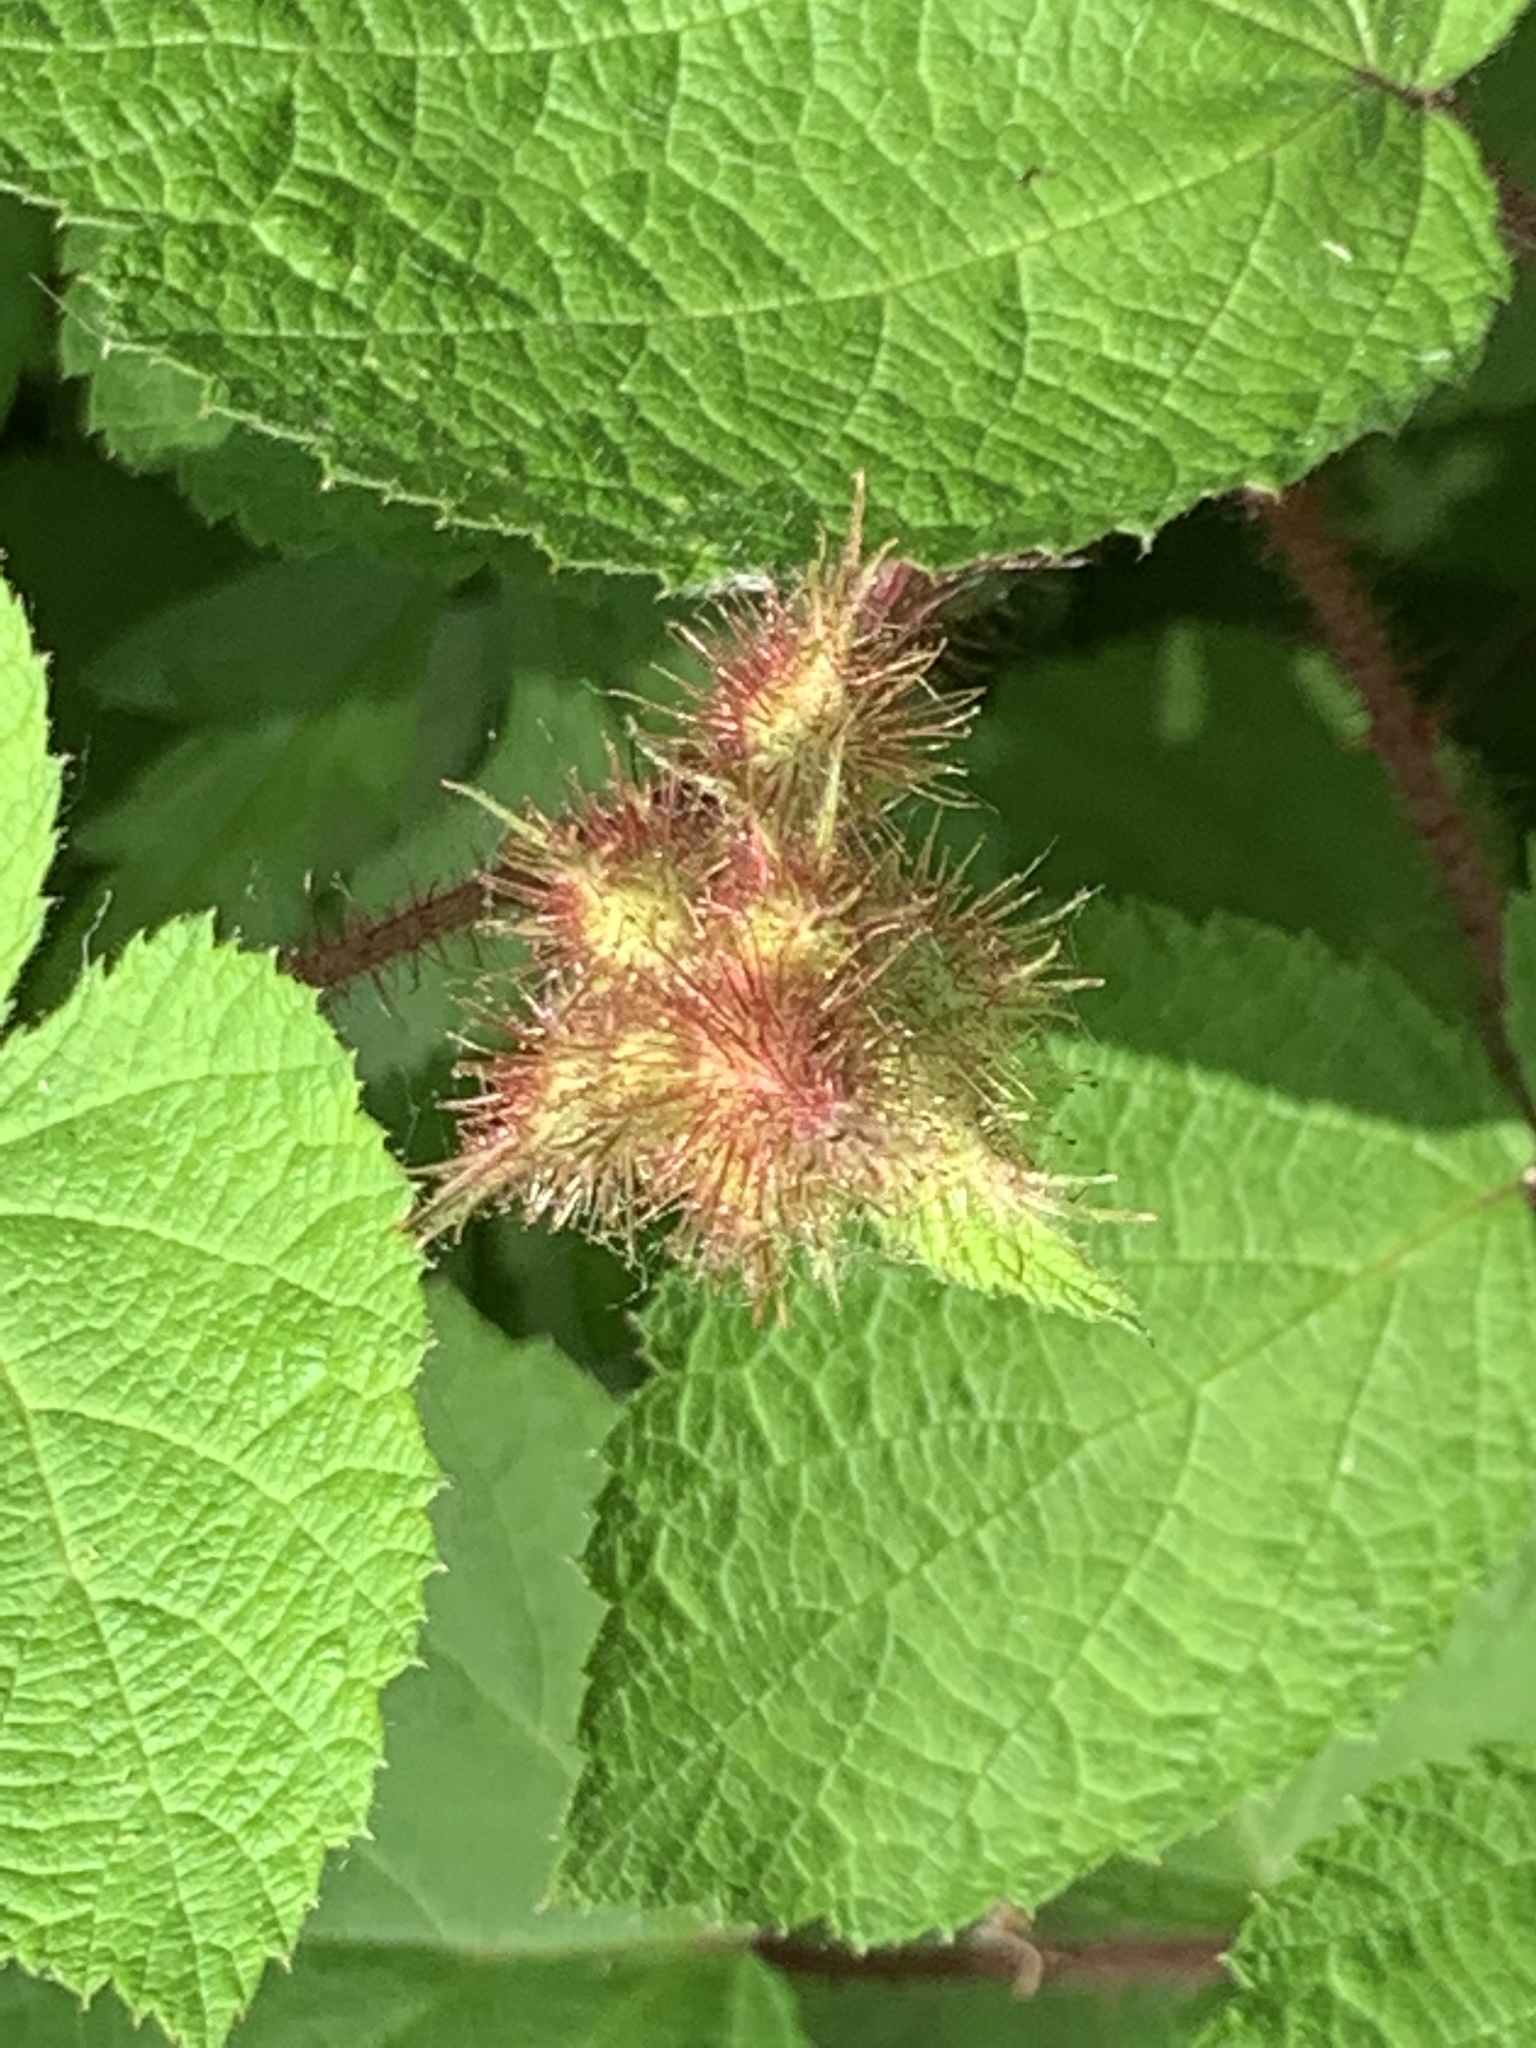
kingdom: Plantae
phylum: Tracheophyta
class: Magnoliopsida
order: Rosales
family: Rosaceae
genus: Rubus
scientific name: Rubus phoenicolasius
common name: Japanese wineberry
